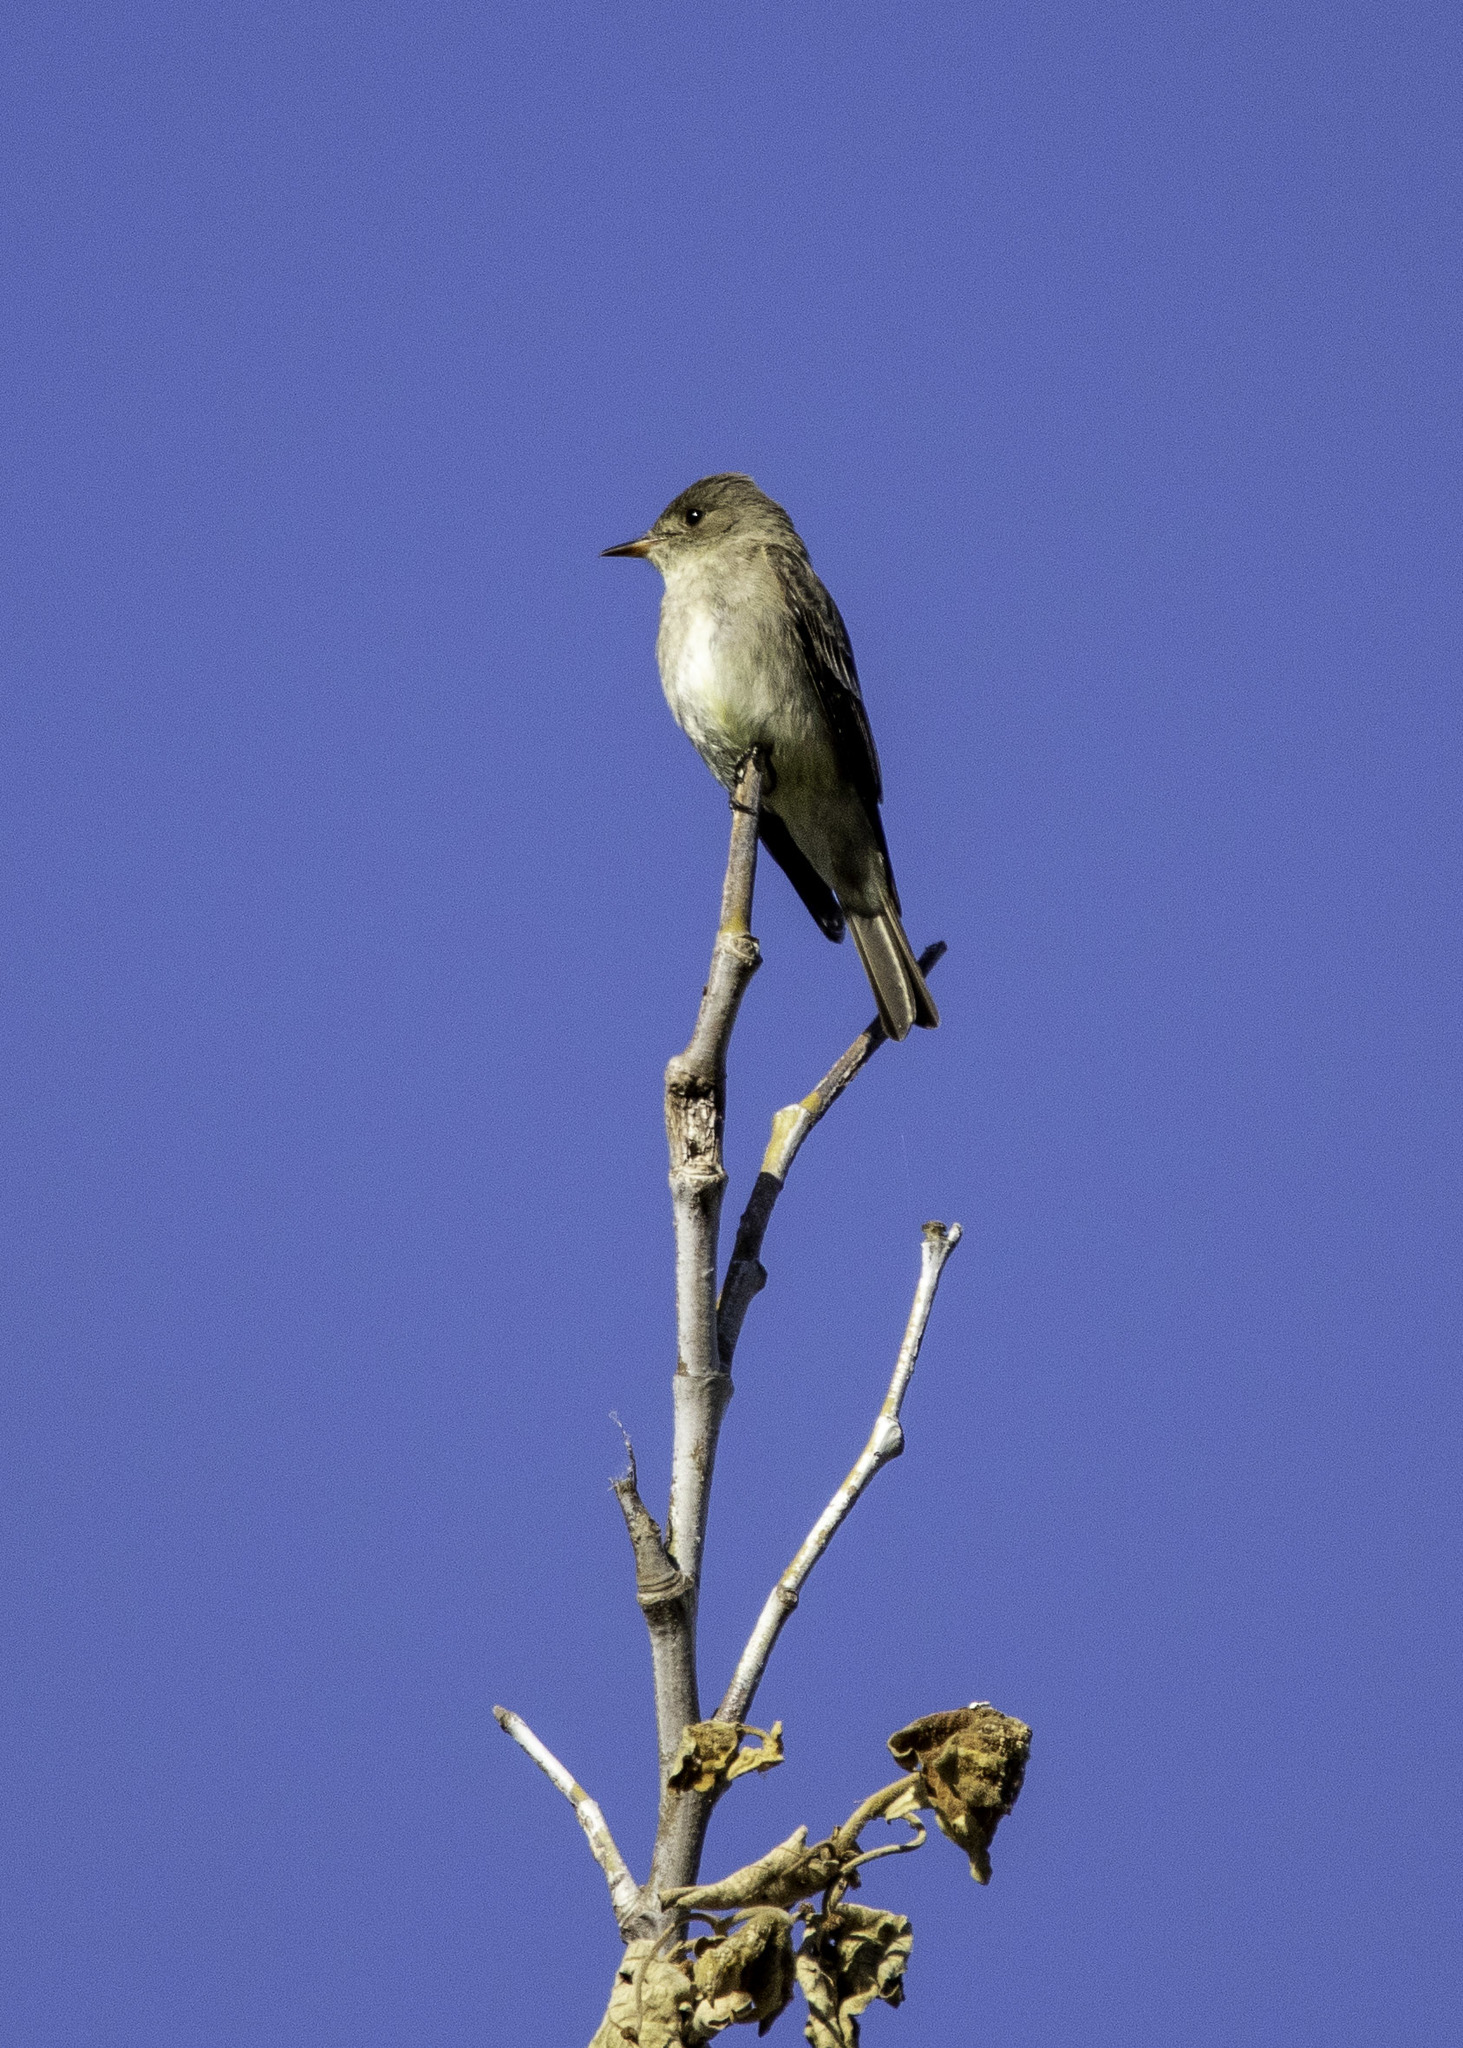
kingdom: Animalia
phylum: Chordata
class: Aves
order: Passeriformes
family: Tyrannidae
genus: Contopus
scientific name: Contopus sordidulus
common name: Western wood-pewee
